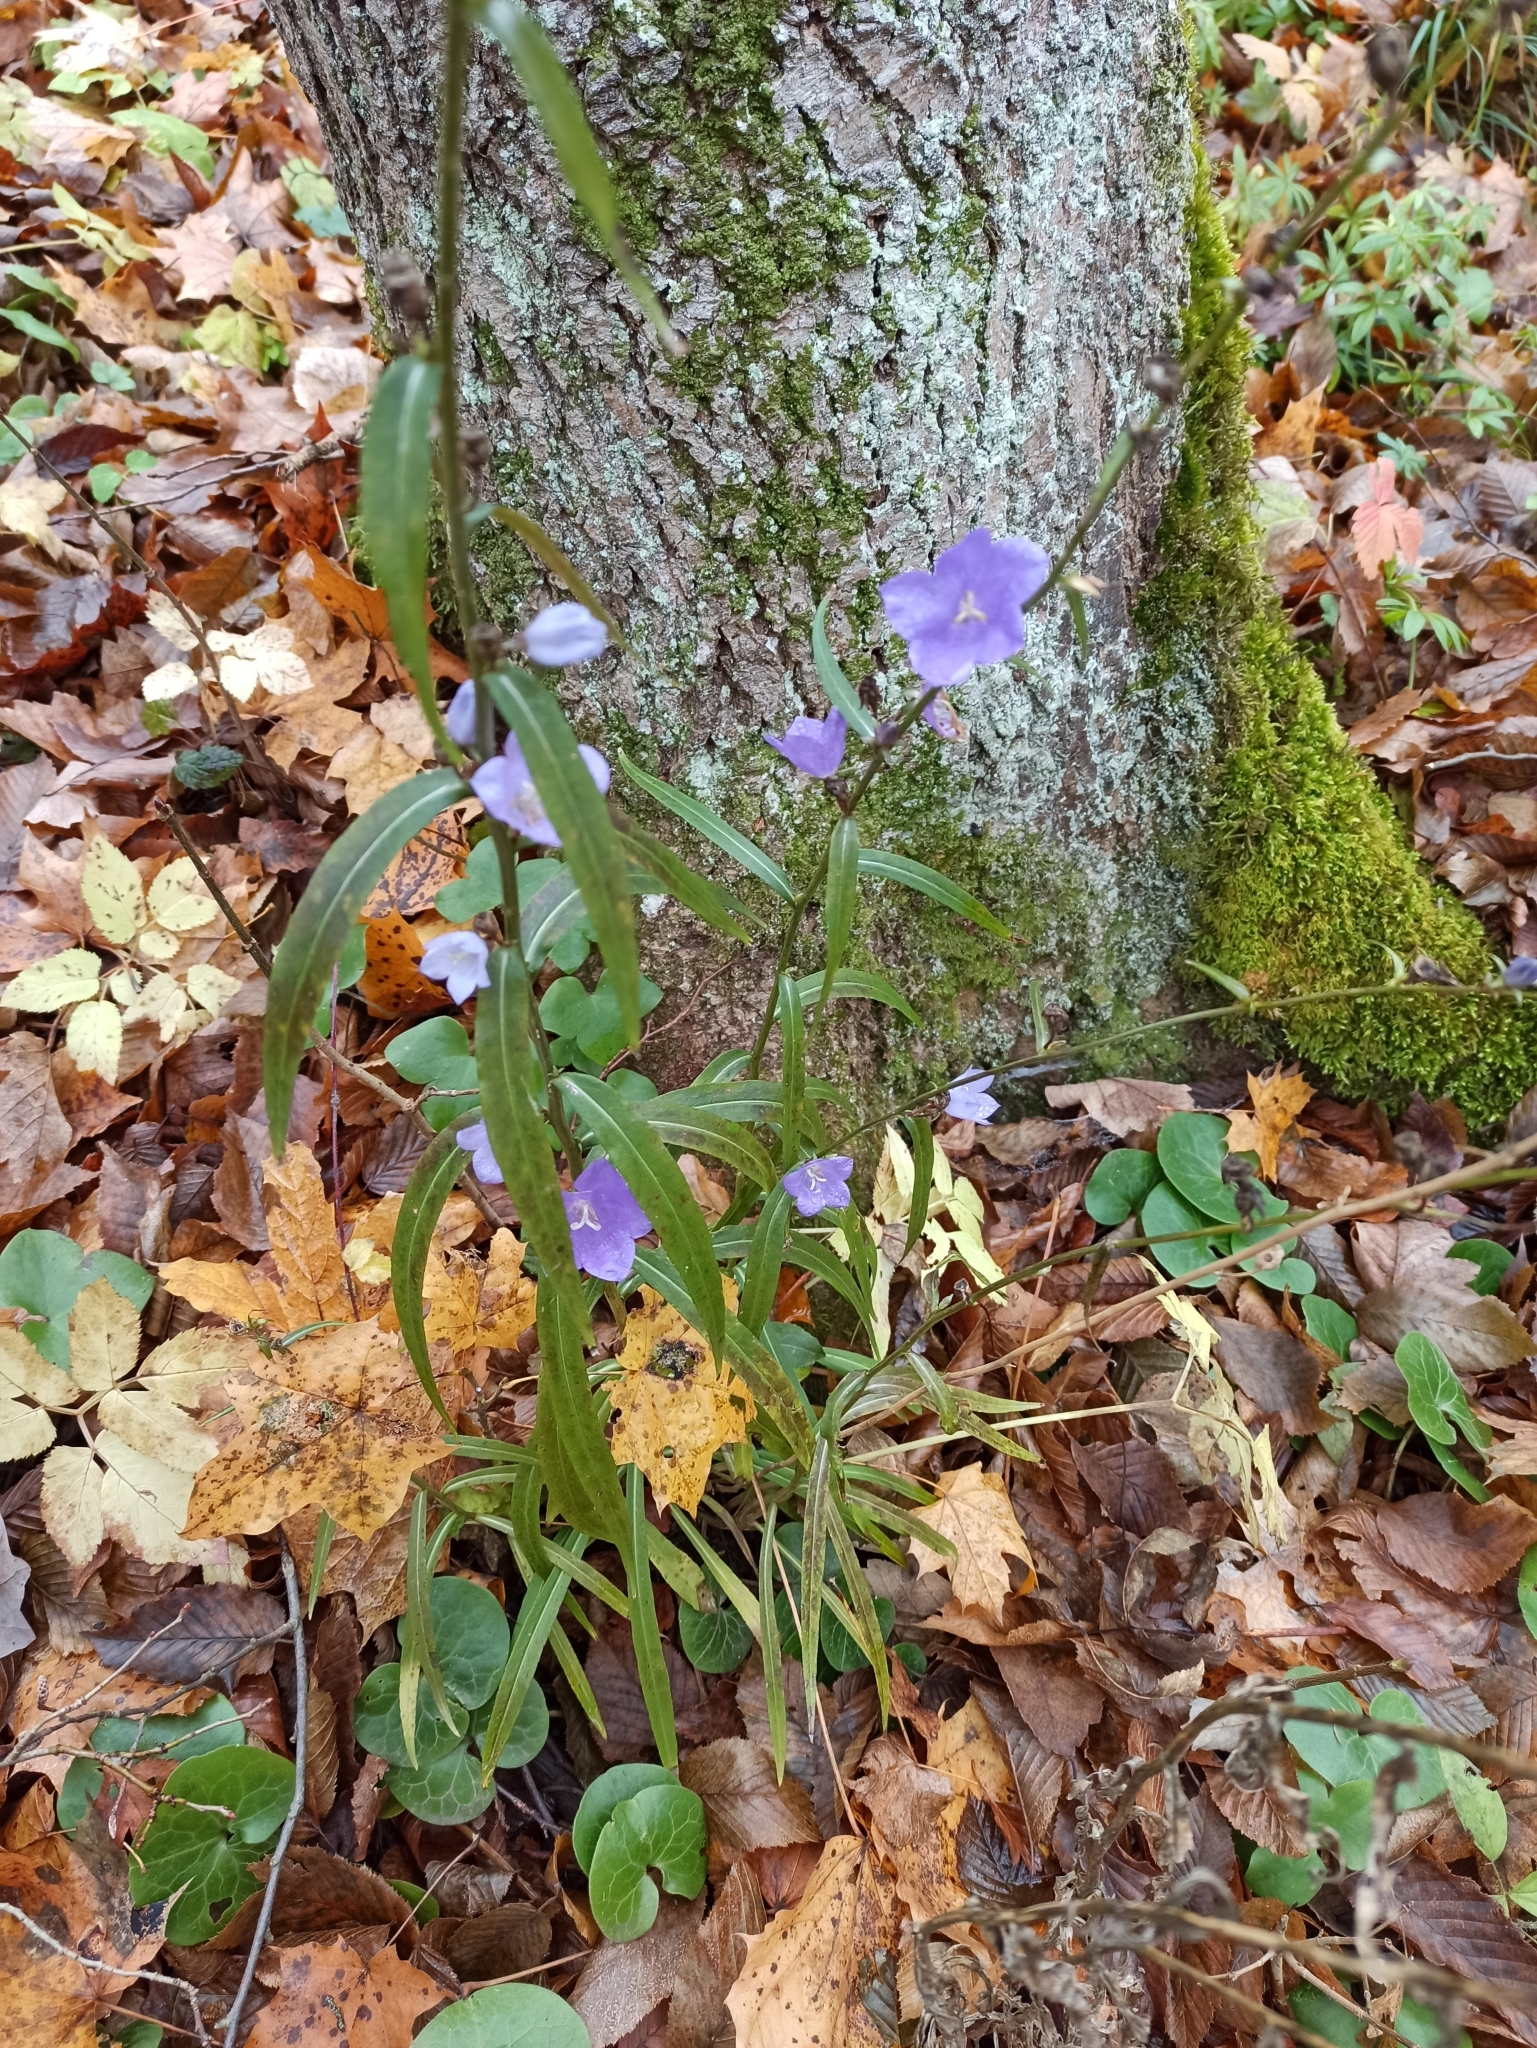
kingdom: Plantae
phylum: Tracheophyta
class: Magnoliopsida
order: Asterales
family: Campanulaceae
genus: Campanula
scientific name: Campanula persicifolia
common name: Peach-leaved bellflower
